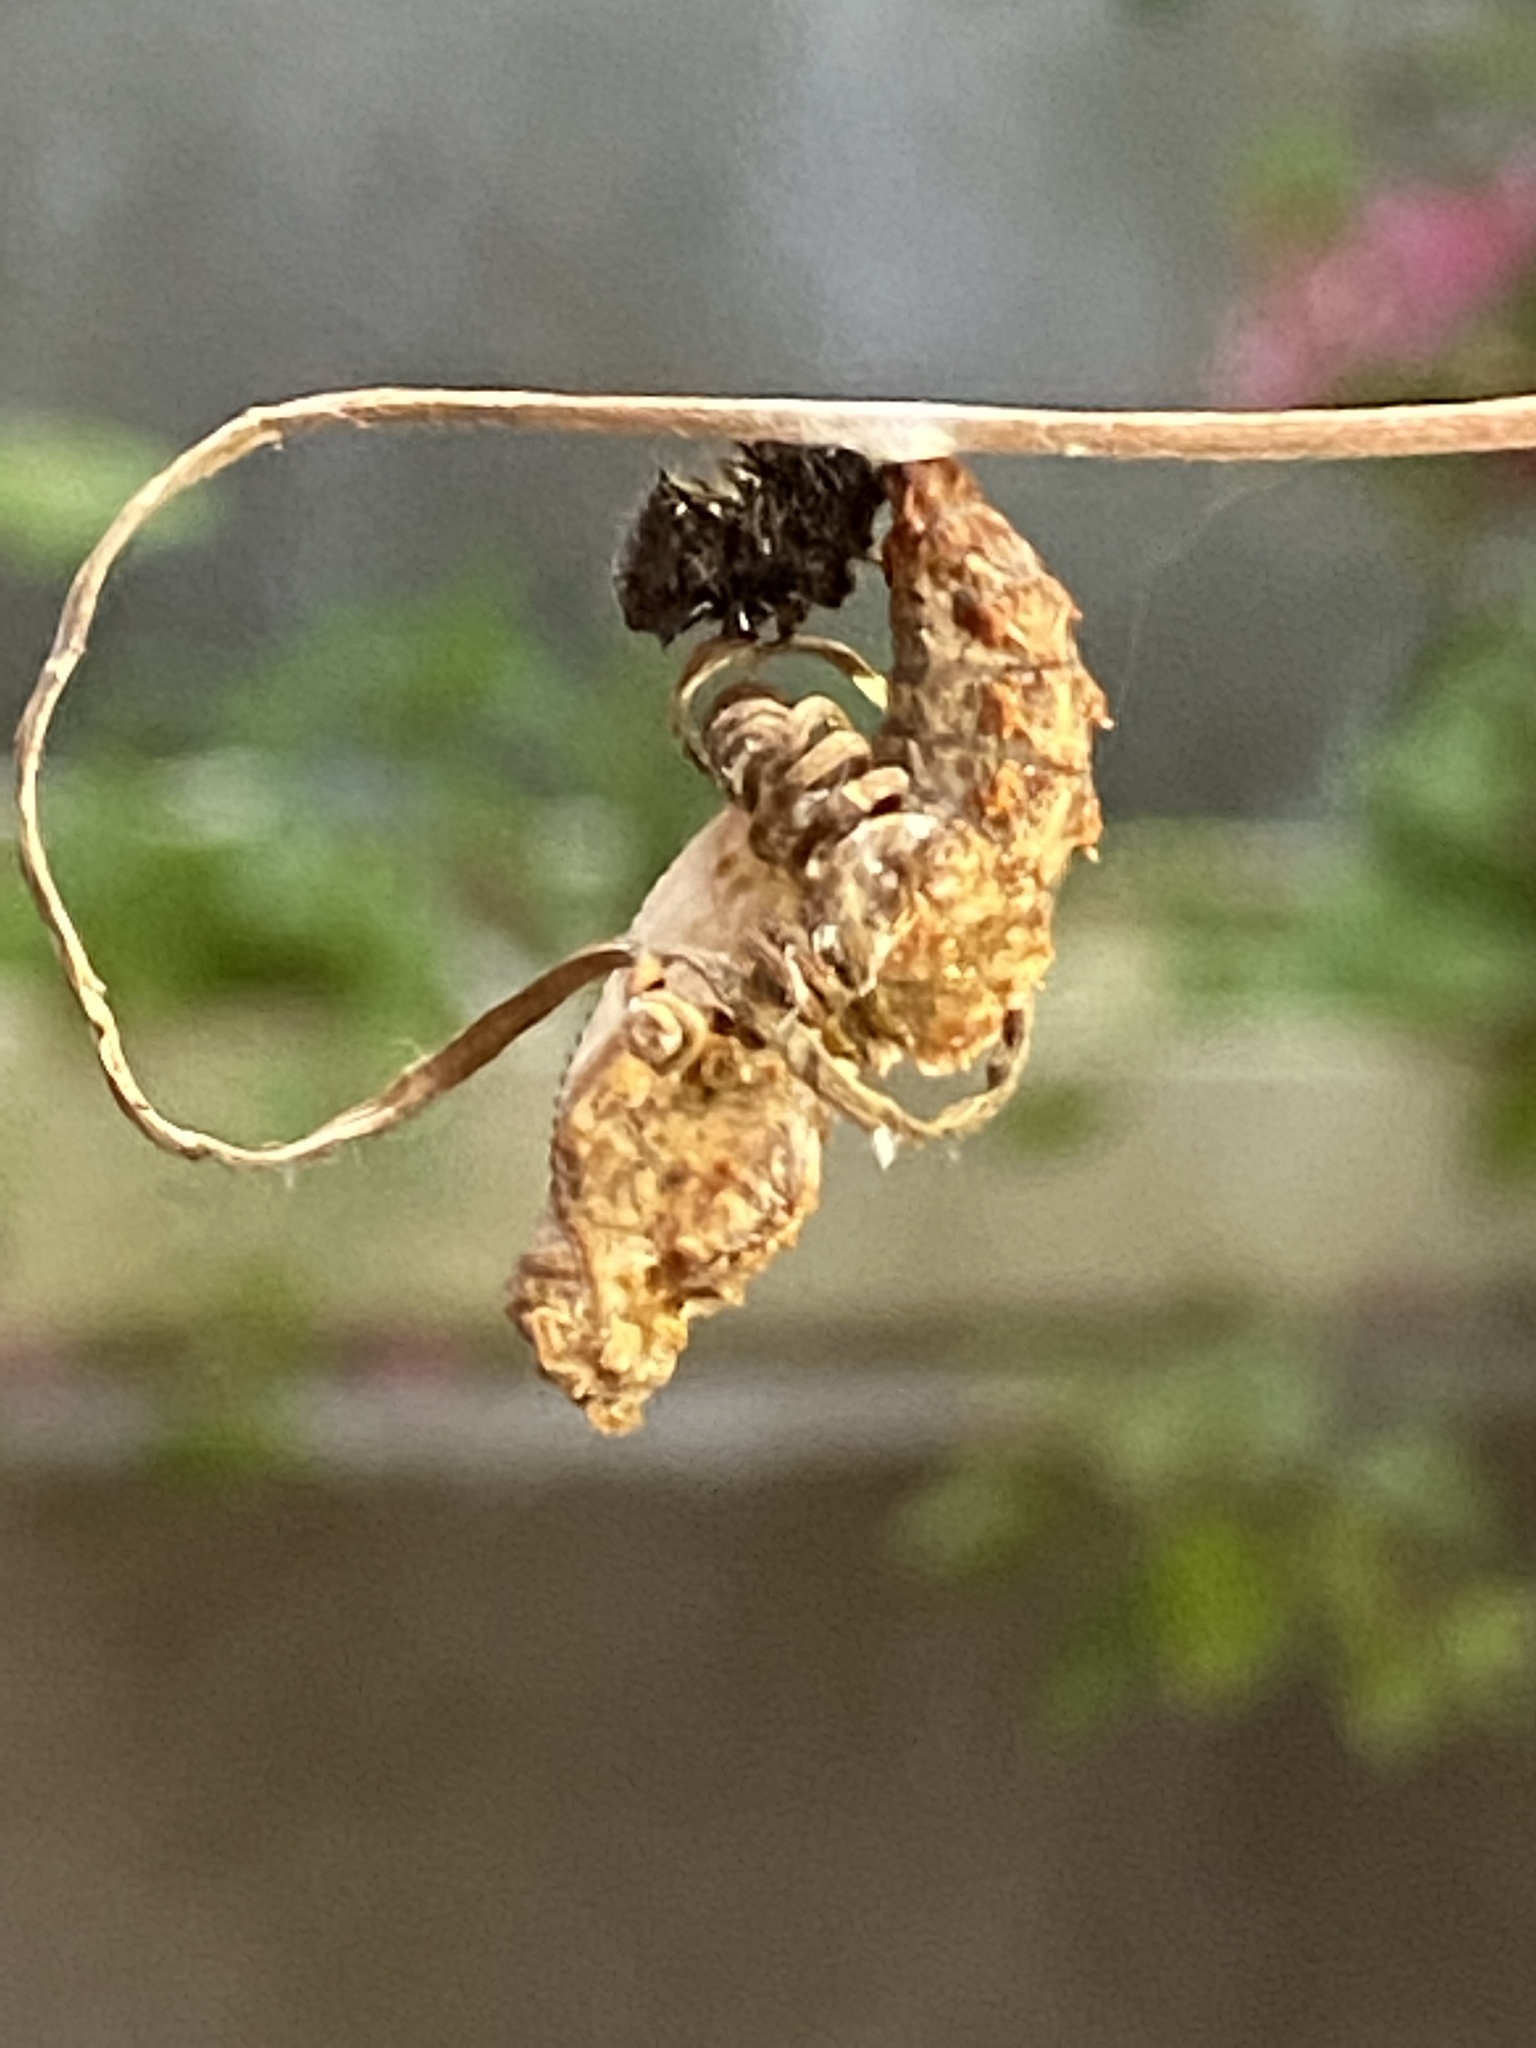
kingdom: Animalia
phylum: Arthropoda
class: Insecta
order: Lepidoptera
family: Nymphalidae
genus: Dione
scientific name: Dione juno
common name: Juno silverspot
